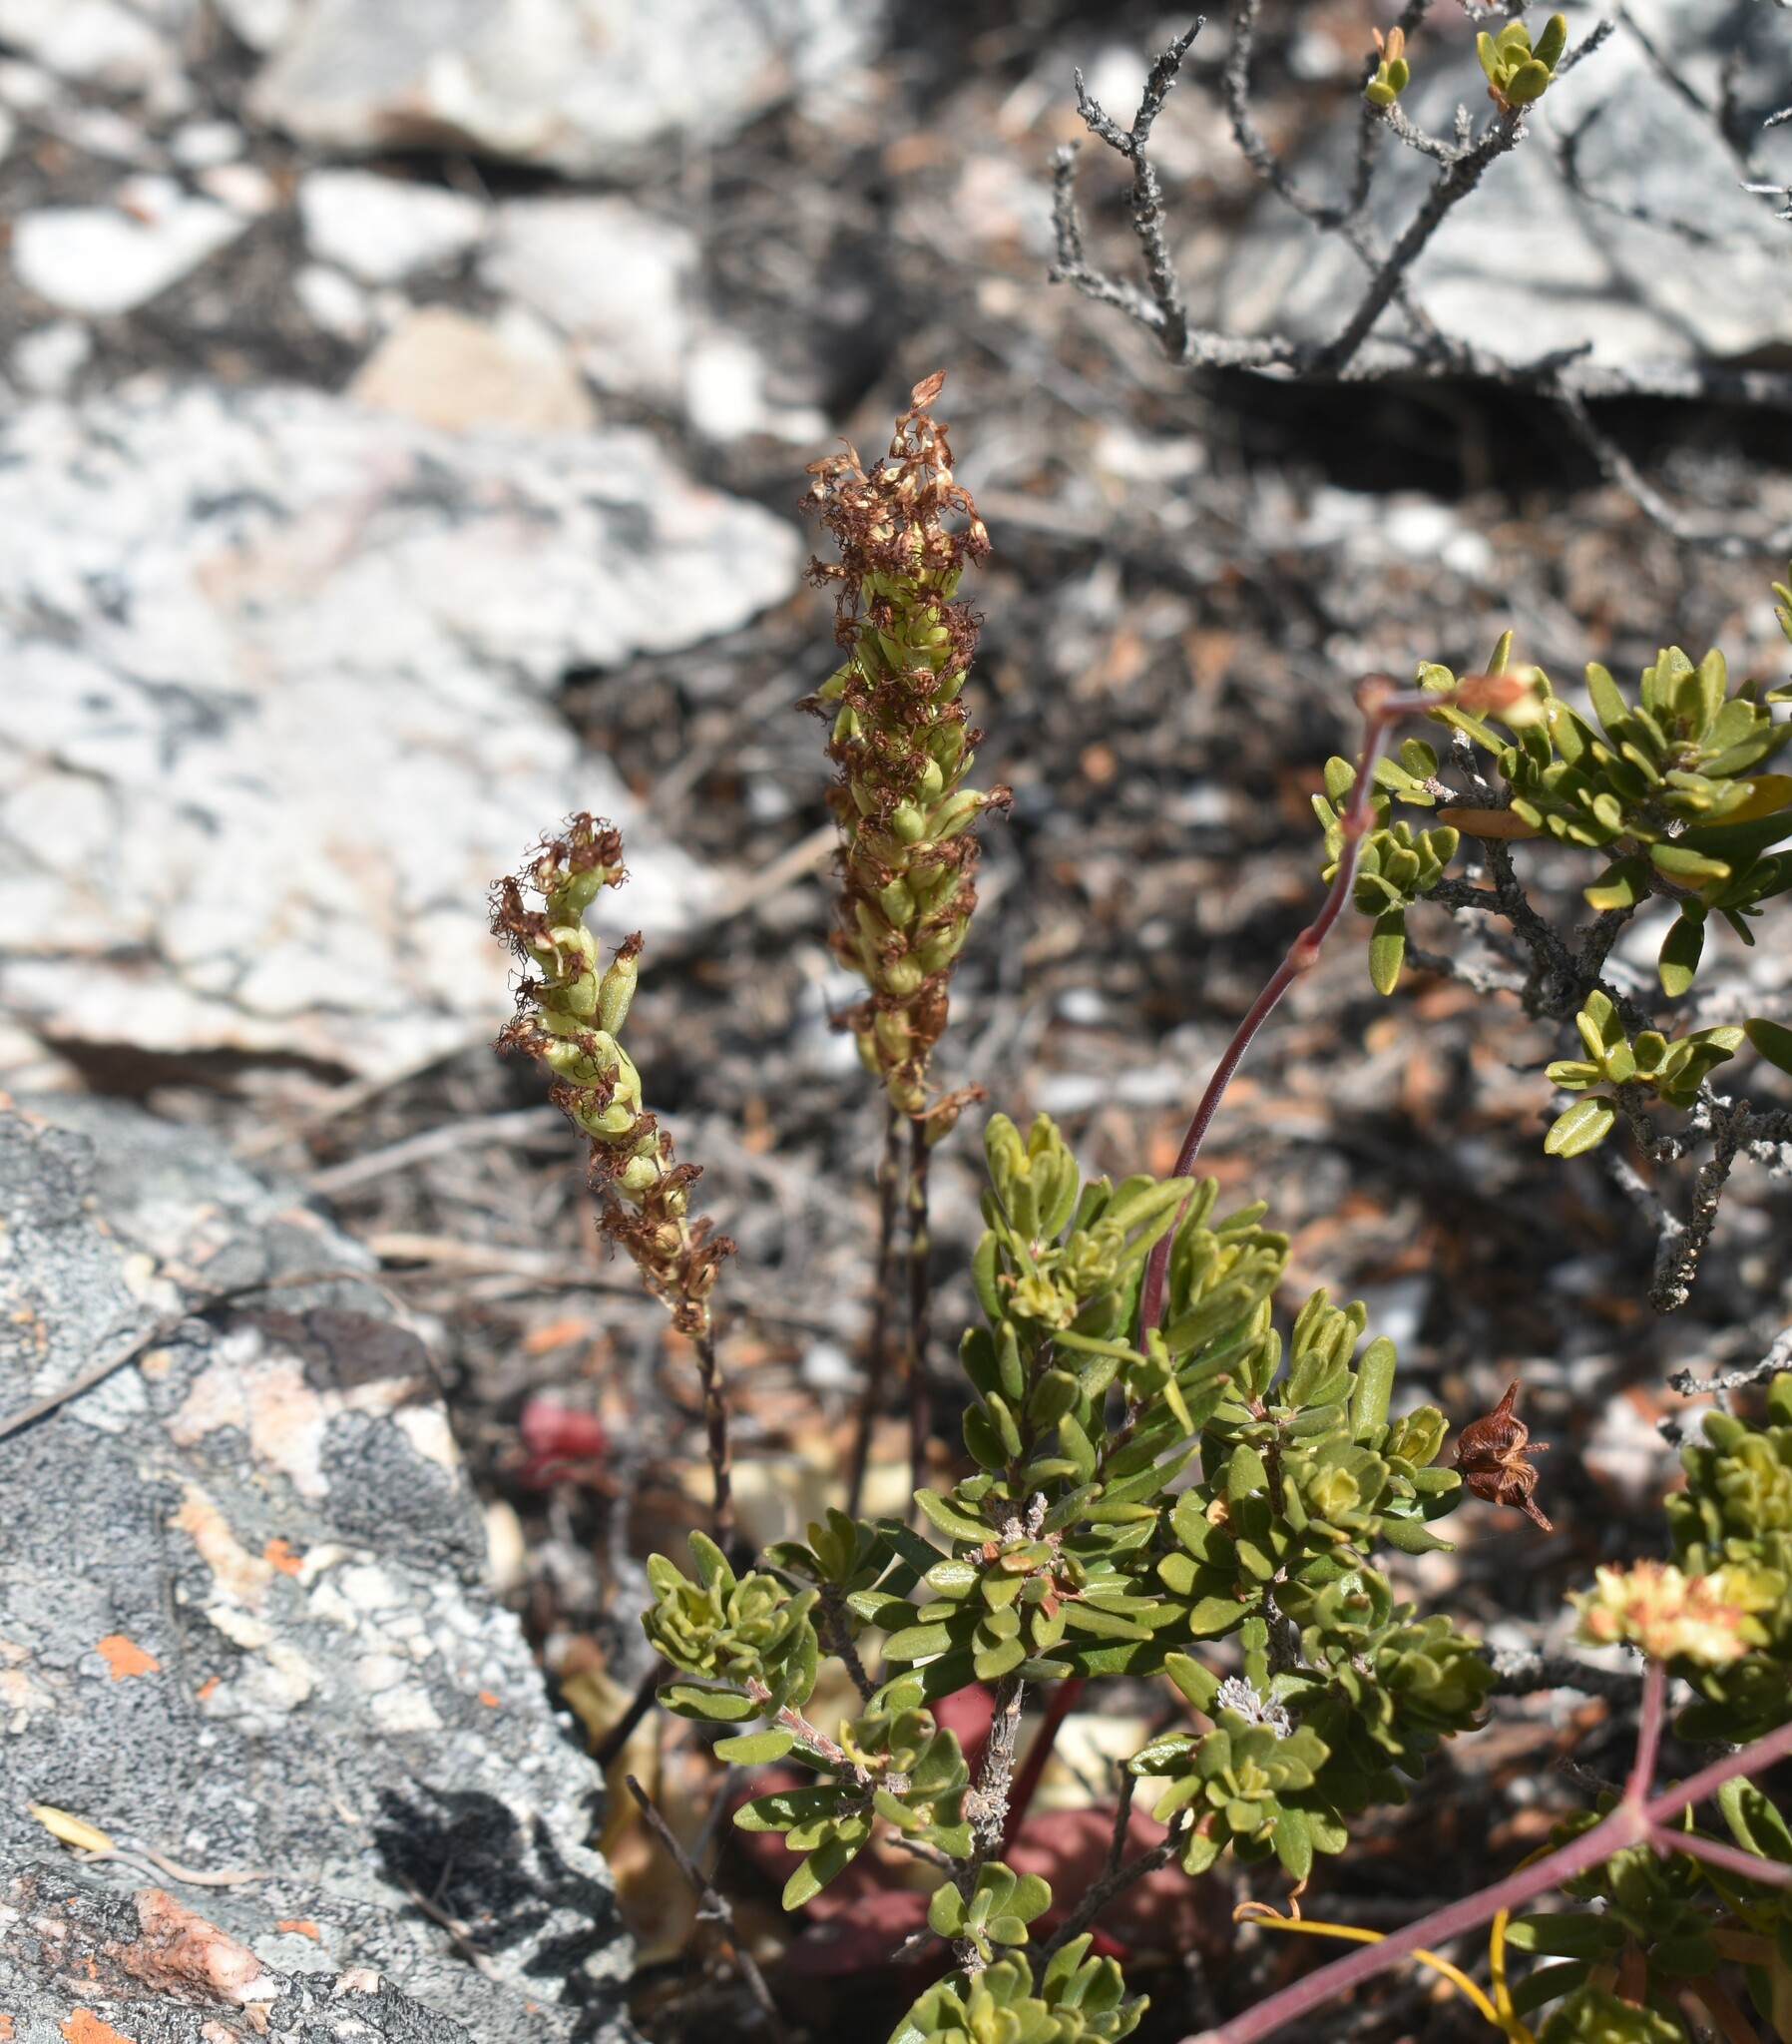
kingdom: Plantae
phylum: Tracheophyta
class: Liliopsida
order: Asparagales
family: Orchidaceae
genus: Holothrix
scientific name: Holothrix schlechteriana
